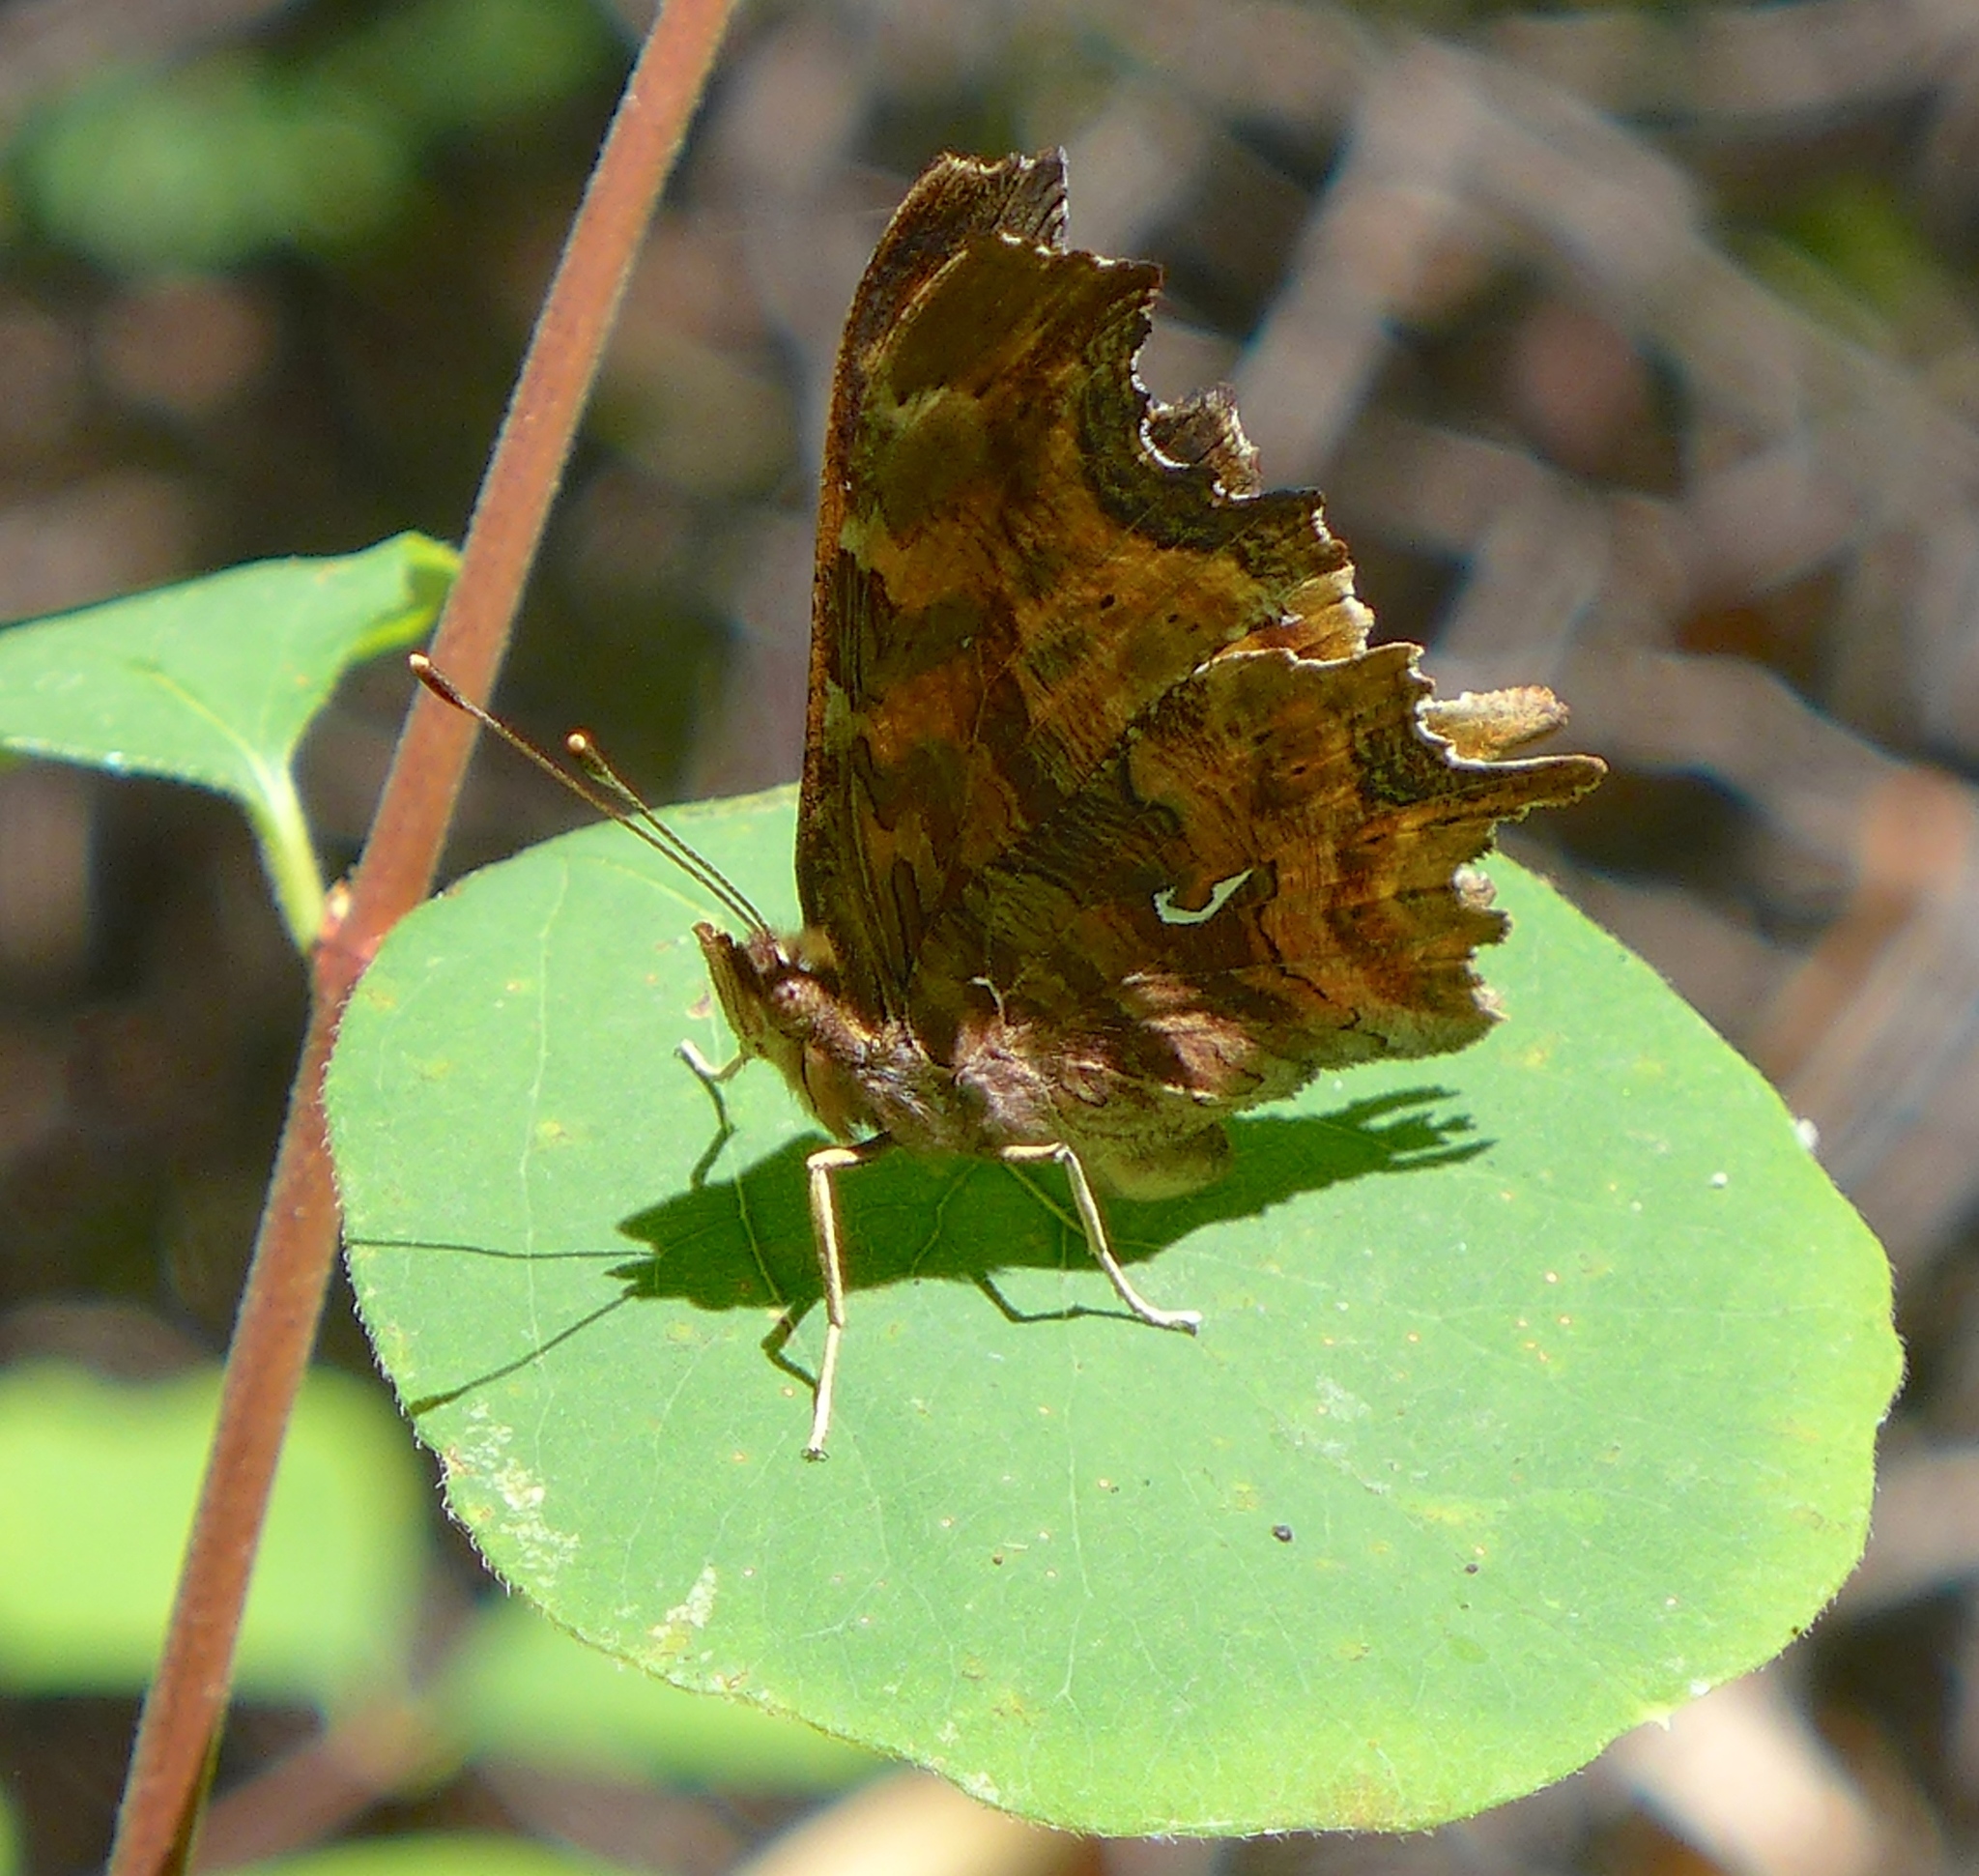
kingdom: Animalia
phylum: Arthropoda
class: Insecta
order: Lepidoptera
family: Nymphalidae
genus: Polygonia
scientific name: Polygonia satyrus
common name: Satyr angle wing
